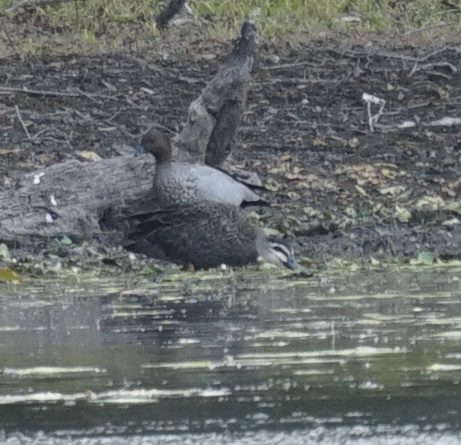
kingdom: Animalia
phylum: Chordata
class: Aves
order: Anseriformes
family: Anatidae
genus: Anas
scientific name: Anas superciliosa
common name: Pacific black duck
